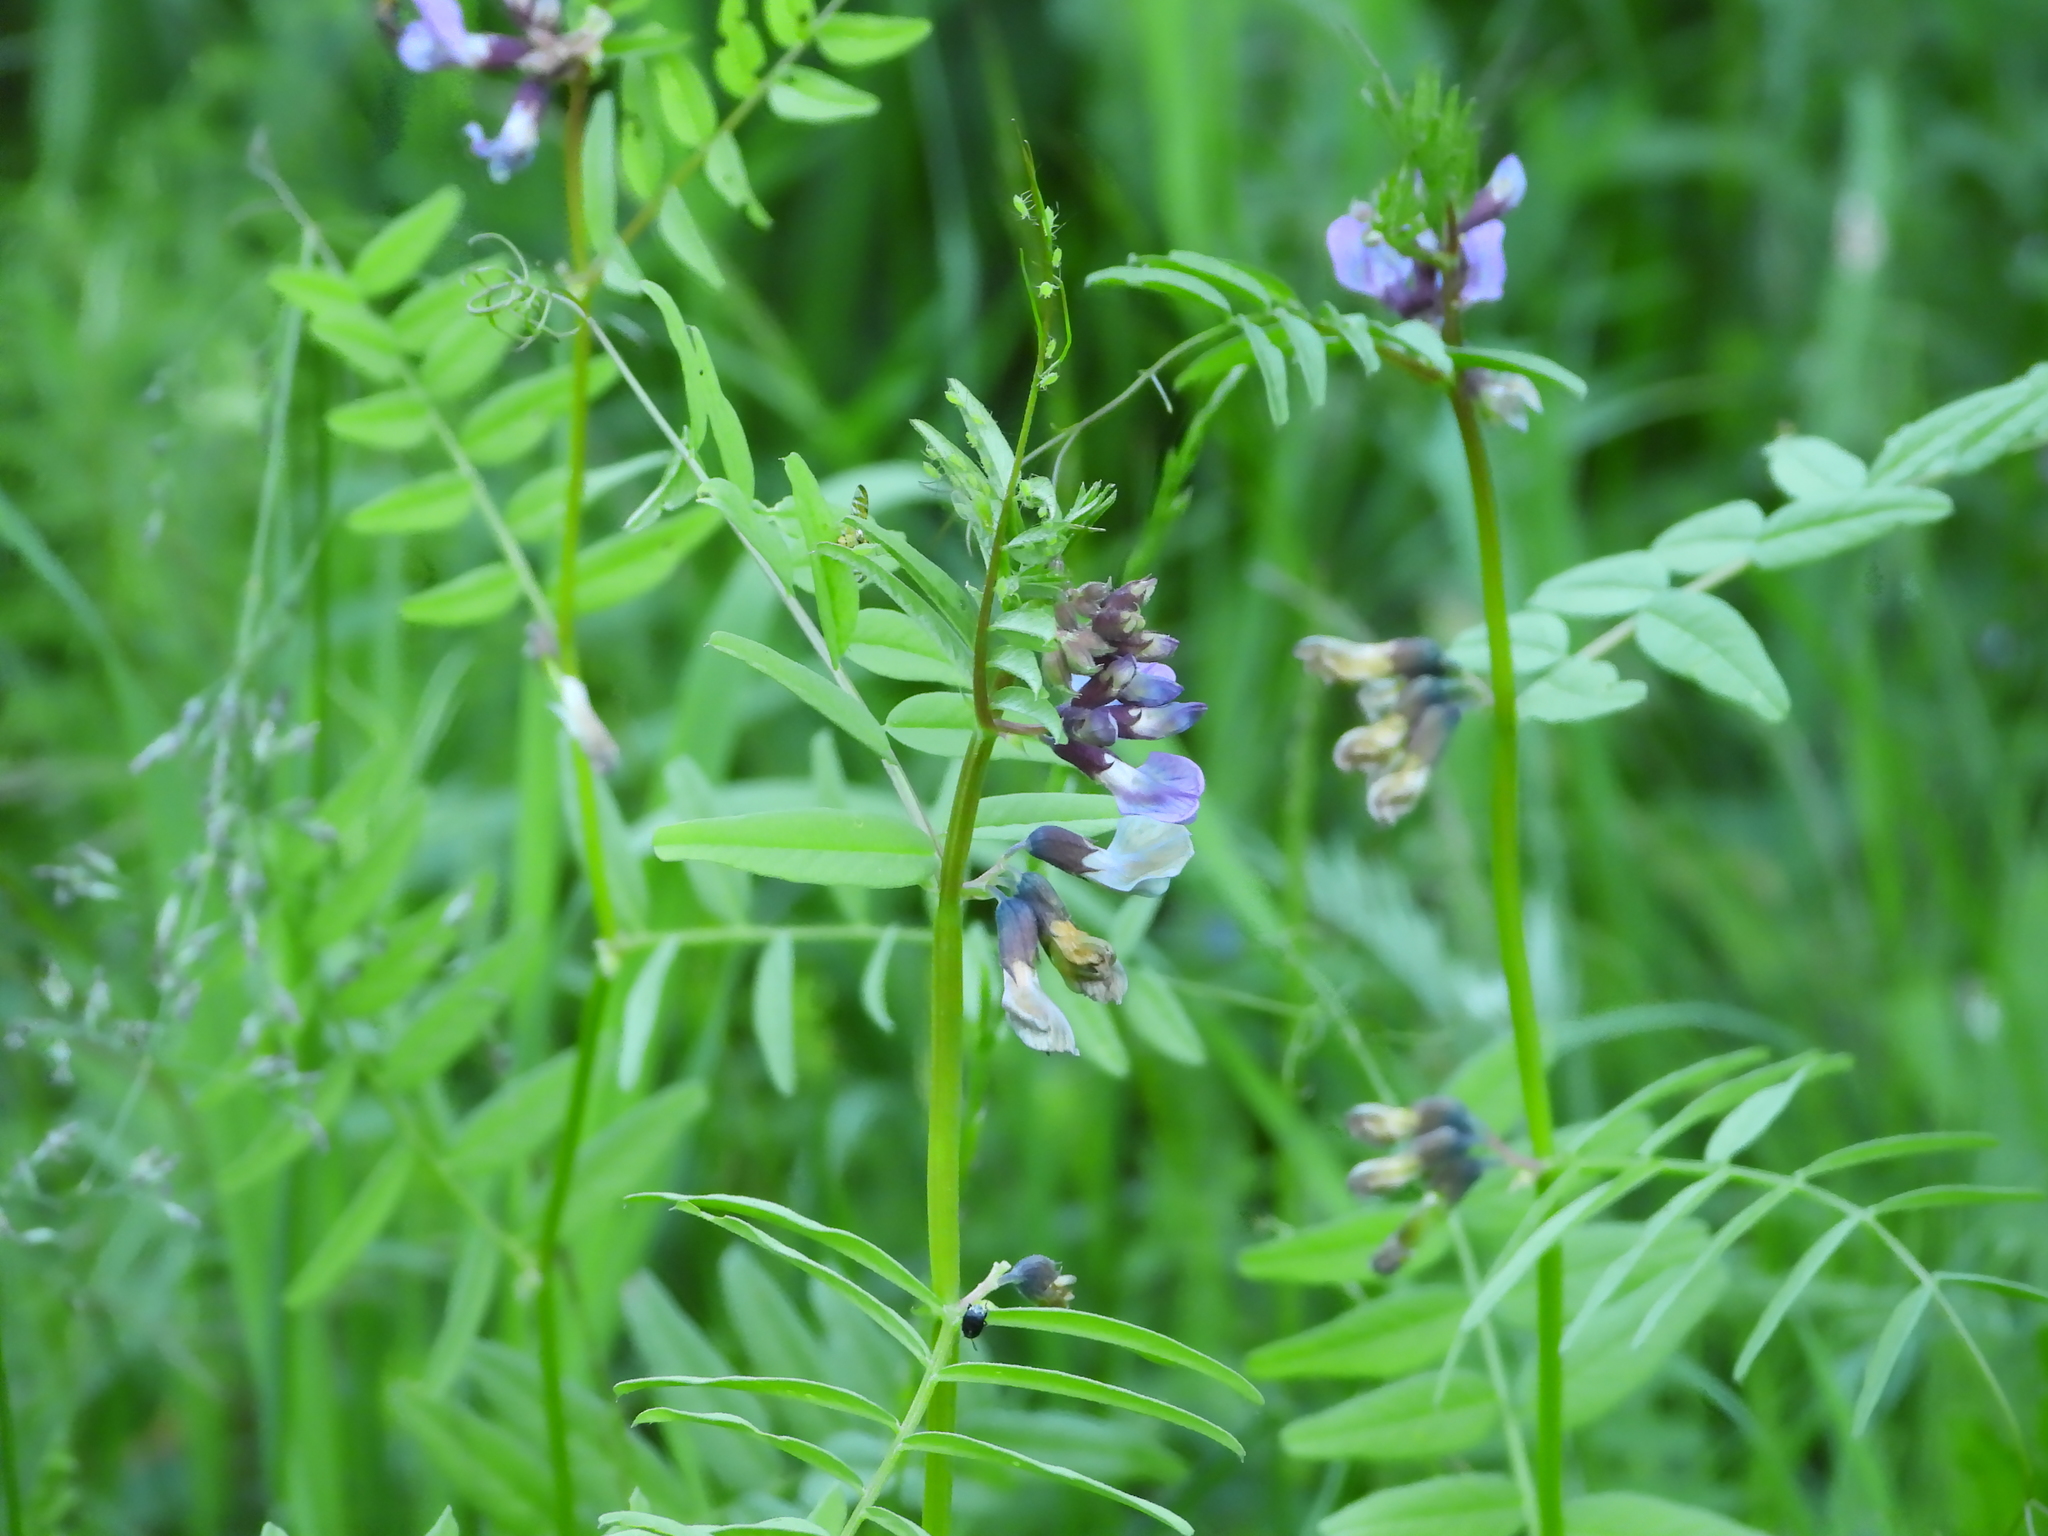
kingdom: Plantae
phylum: Tracheophyta
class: Magnoliopsida
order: Fabales
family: Fabaceae
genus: Vicia
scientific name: Vicia sepium
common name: Bush vetch
